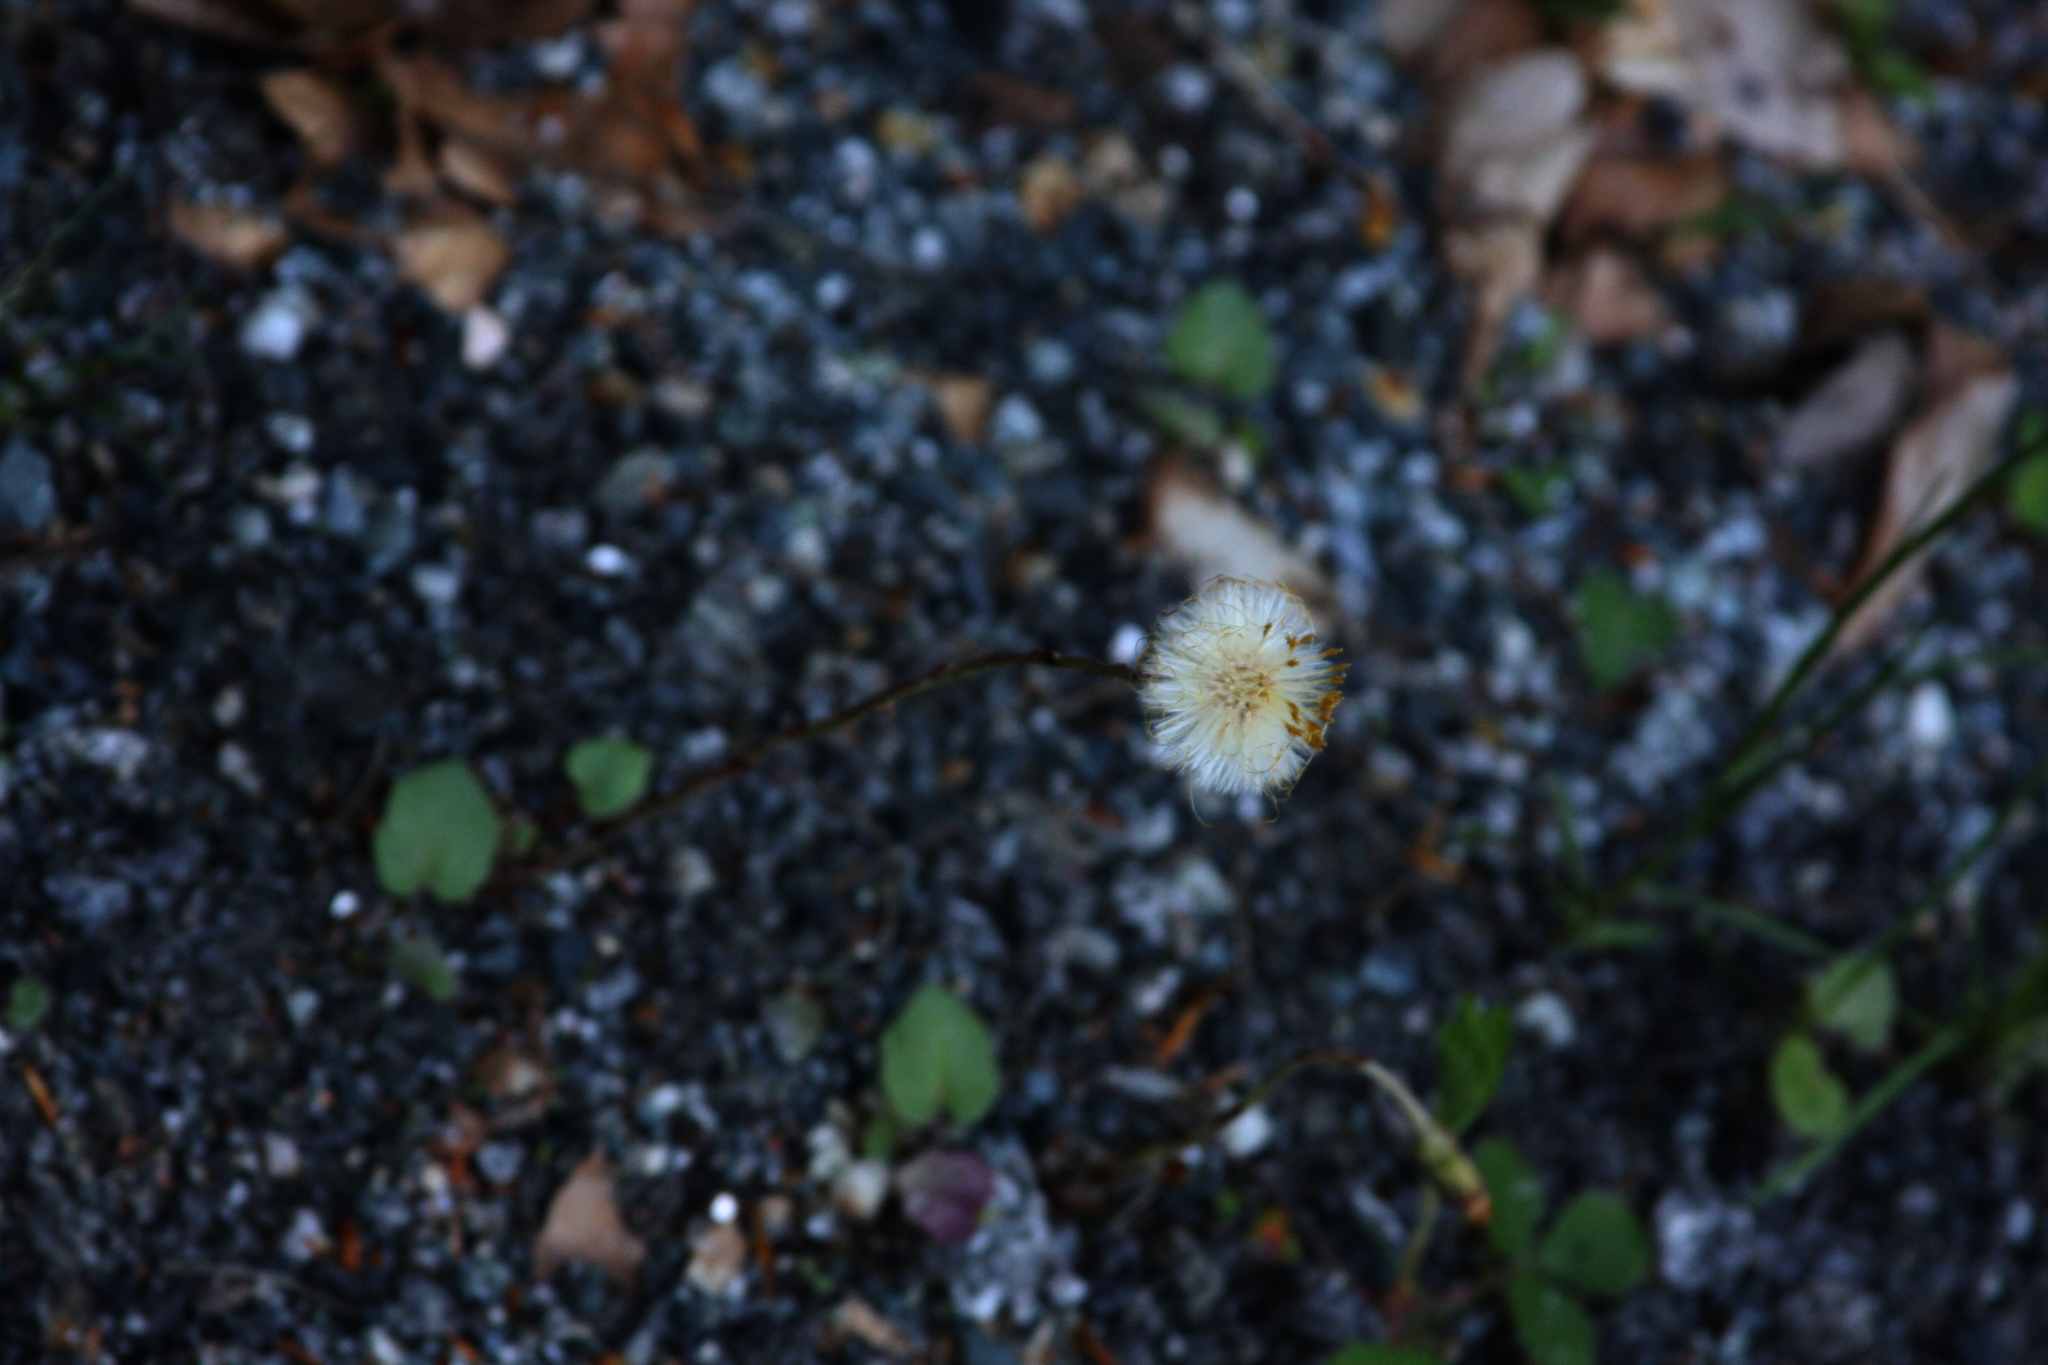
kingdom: Plantae
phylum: Tracheophyta
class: Magnoliopsida
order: Asterales
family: Asteraceae
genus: Tussilago
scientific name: Tussilago farfara
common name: Coltsfoot
